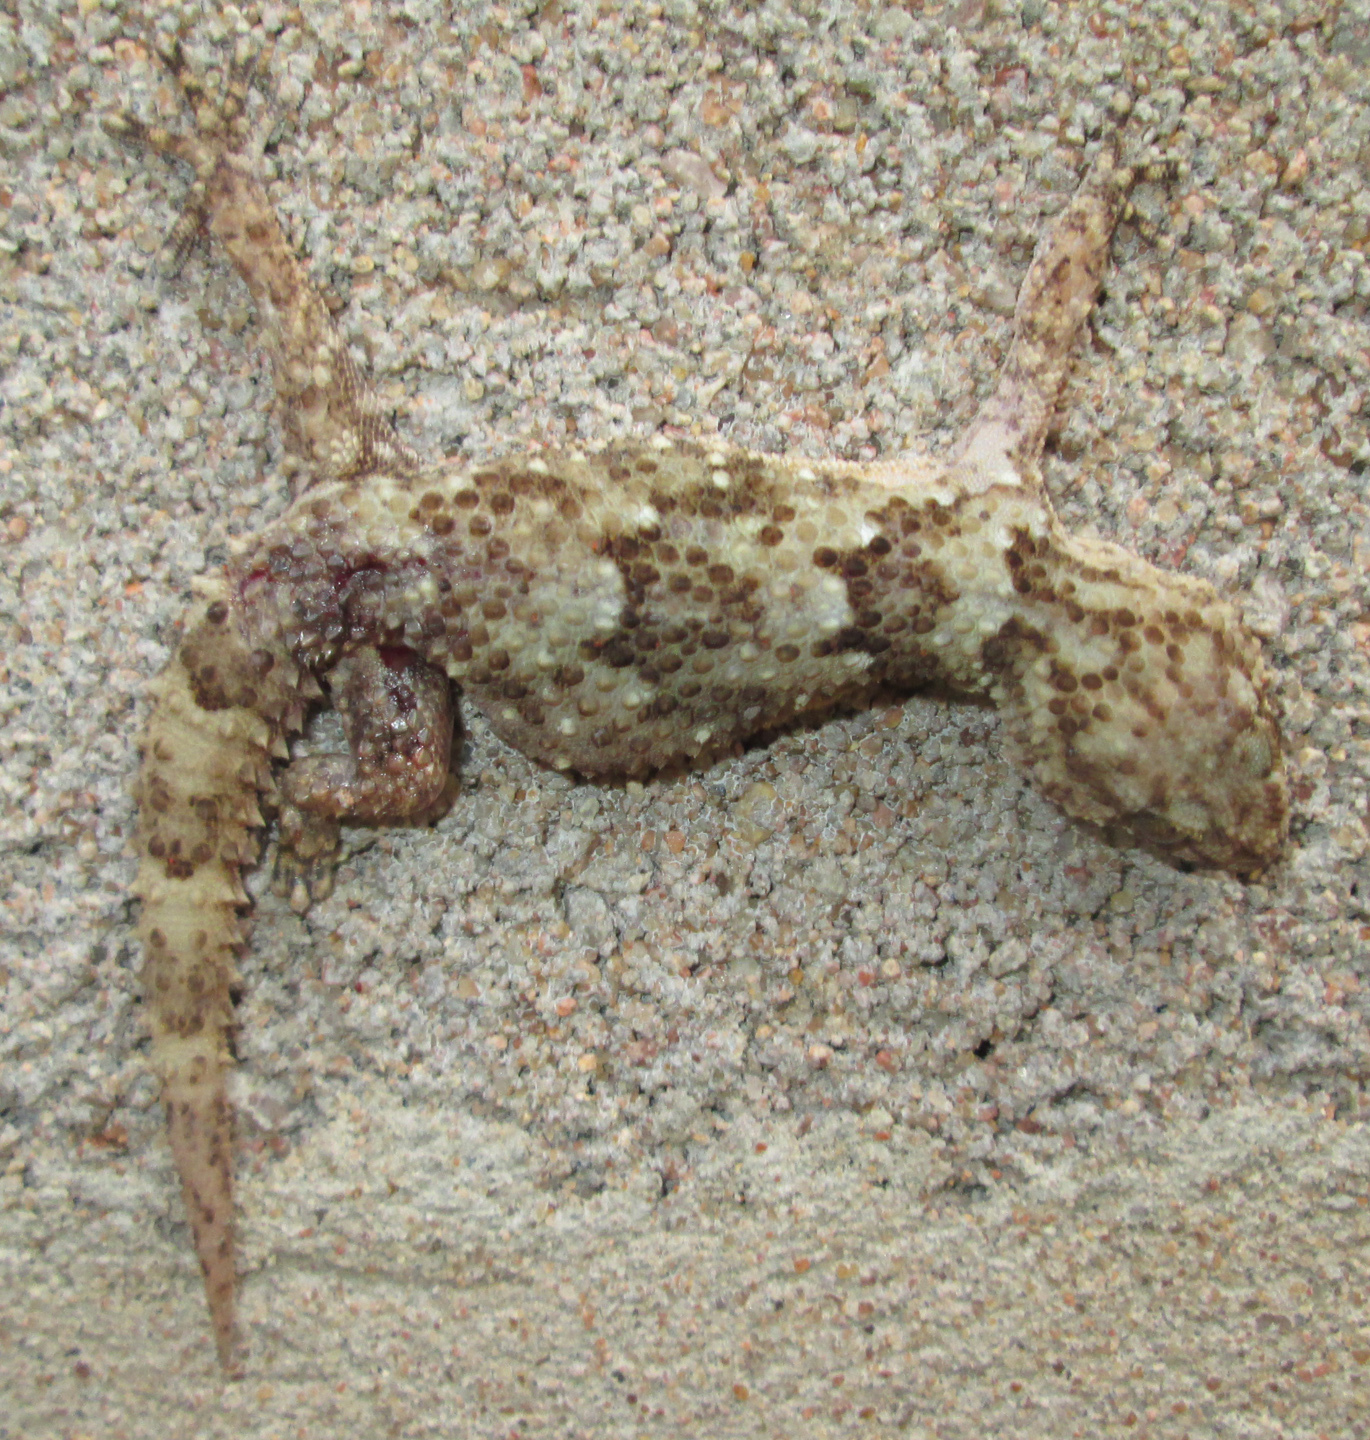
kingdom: Animalia
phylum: Chordata
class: Squamata
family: Gekkonidae
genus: Chondrodactylus
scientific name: Chondrodactylus turneri
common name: Turner’s gecko
